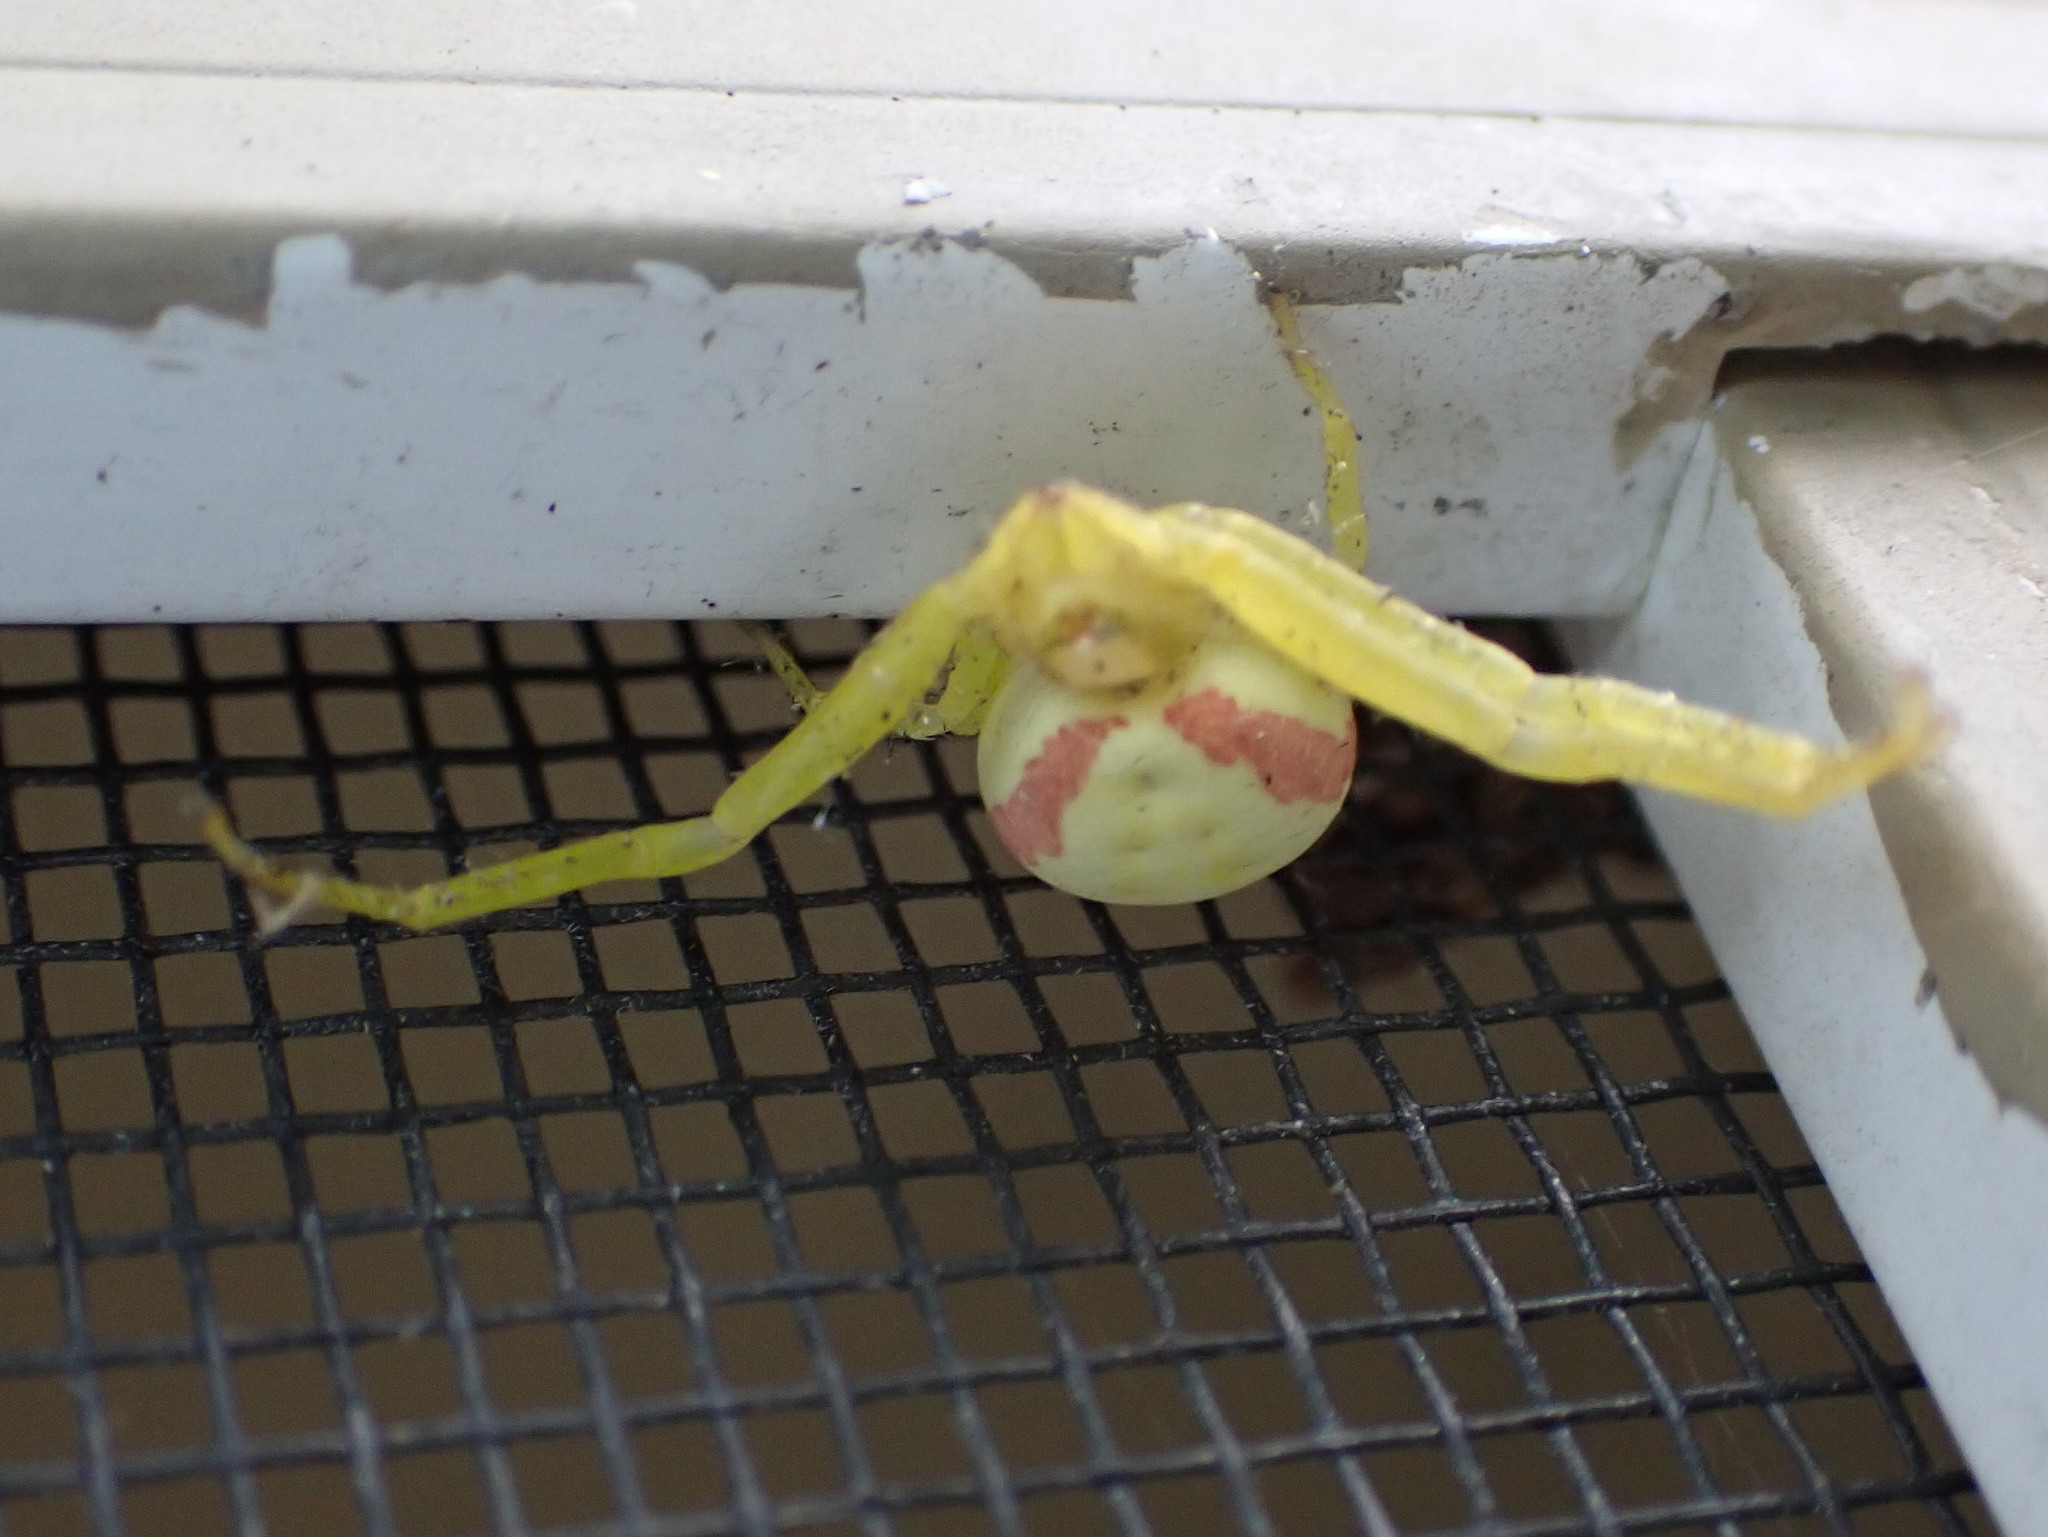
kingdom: Animalia
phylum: Arthropoda
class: Arachnida
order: Araneae
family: Thomisidae
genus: Misumena
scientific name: Misumena vatia
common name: Goldenrod crab spider
